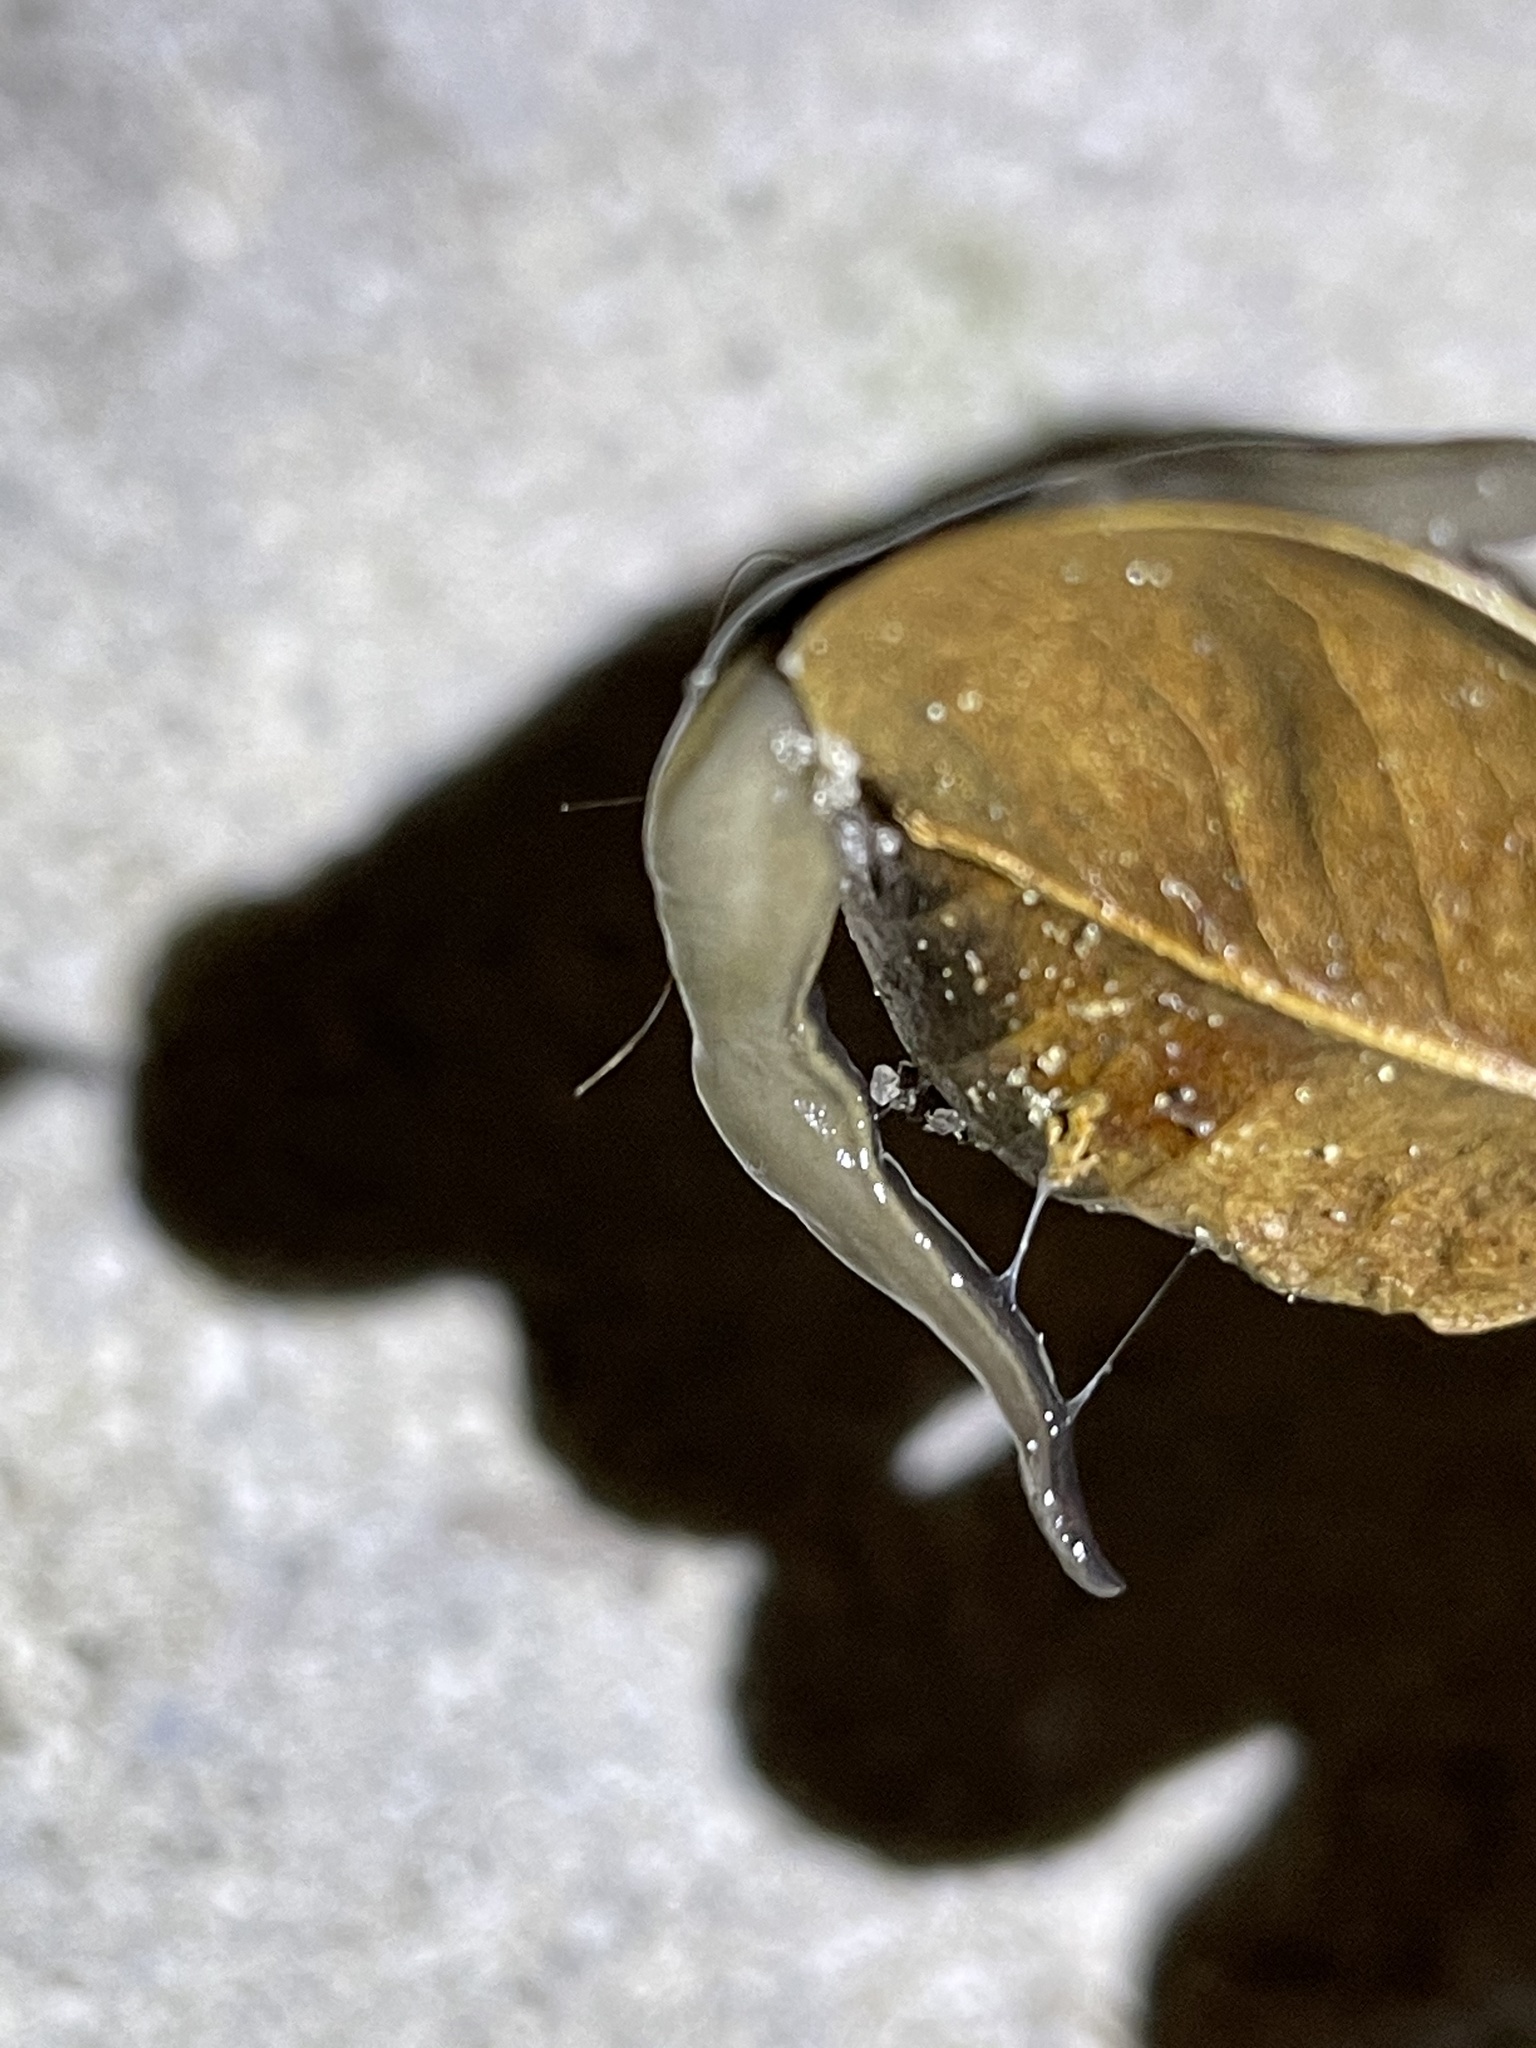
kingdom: Animalia
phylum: Platyhelminthes
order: Tricladida
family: Geoplanidae
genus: Platydemus
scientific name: Platydemus manokwari
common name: New guinea flatworm
